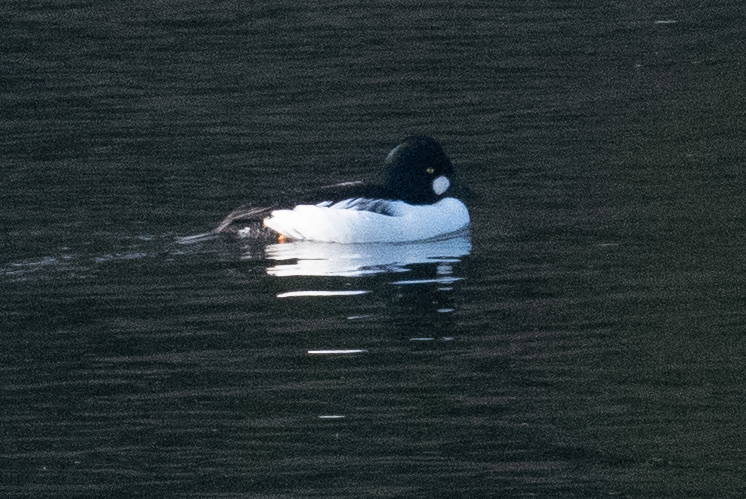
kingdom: Animalia
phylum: Chordata
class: Aves
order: Anseriformes
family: Anatidae
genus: Bucephala
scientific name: Bucephala clangula
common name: Common goldeneye
